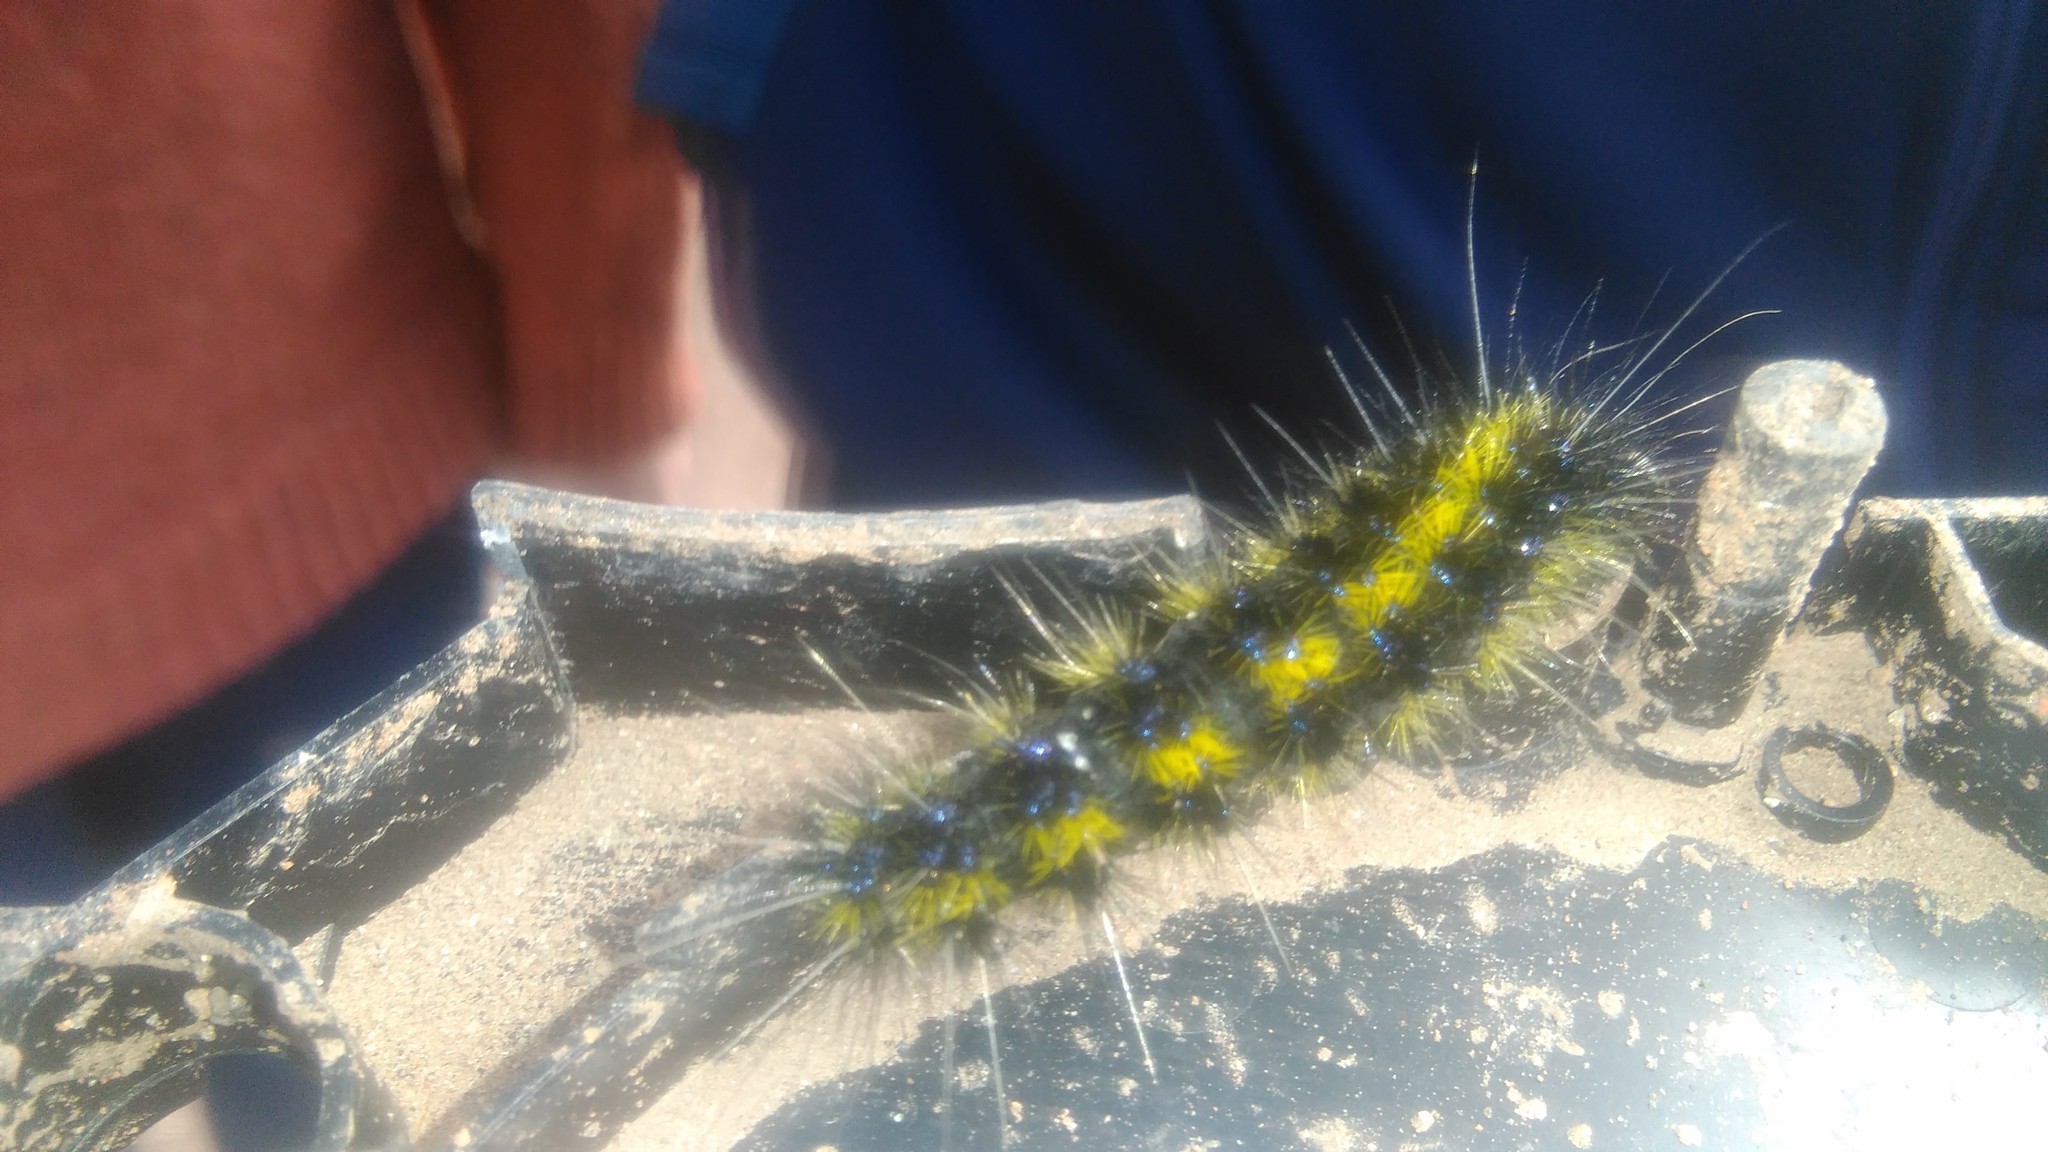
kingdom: Animalia
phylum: Arthropoda
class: Insecta
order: Lepidoptera
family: Erebidae
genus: Dysschema
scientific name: Dysschema centenaria
